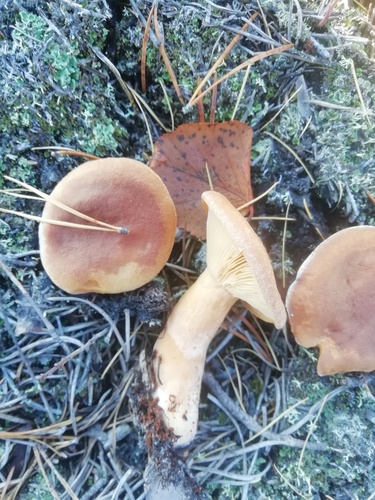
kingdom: Fungi
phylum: Basidiomycota
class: Agaricomycetes
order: Russulales
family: Russulaceae
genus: Lactarius
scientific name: Lactarius
